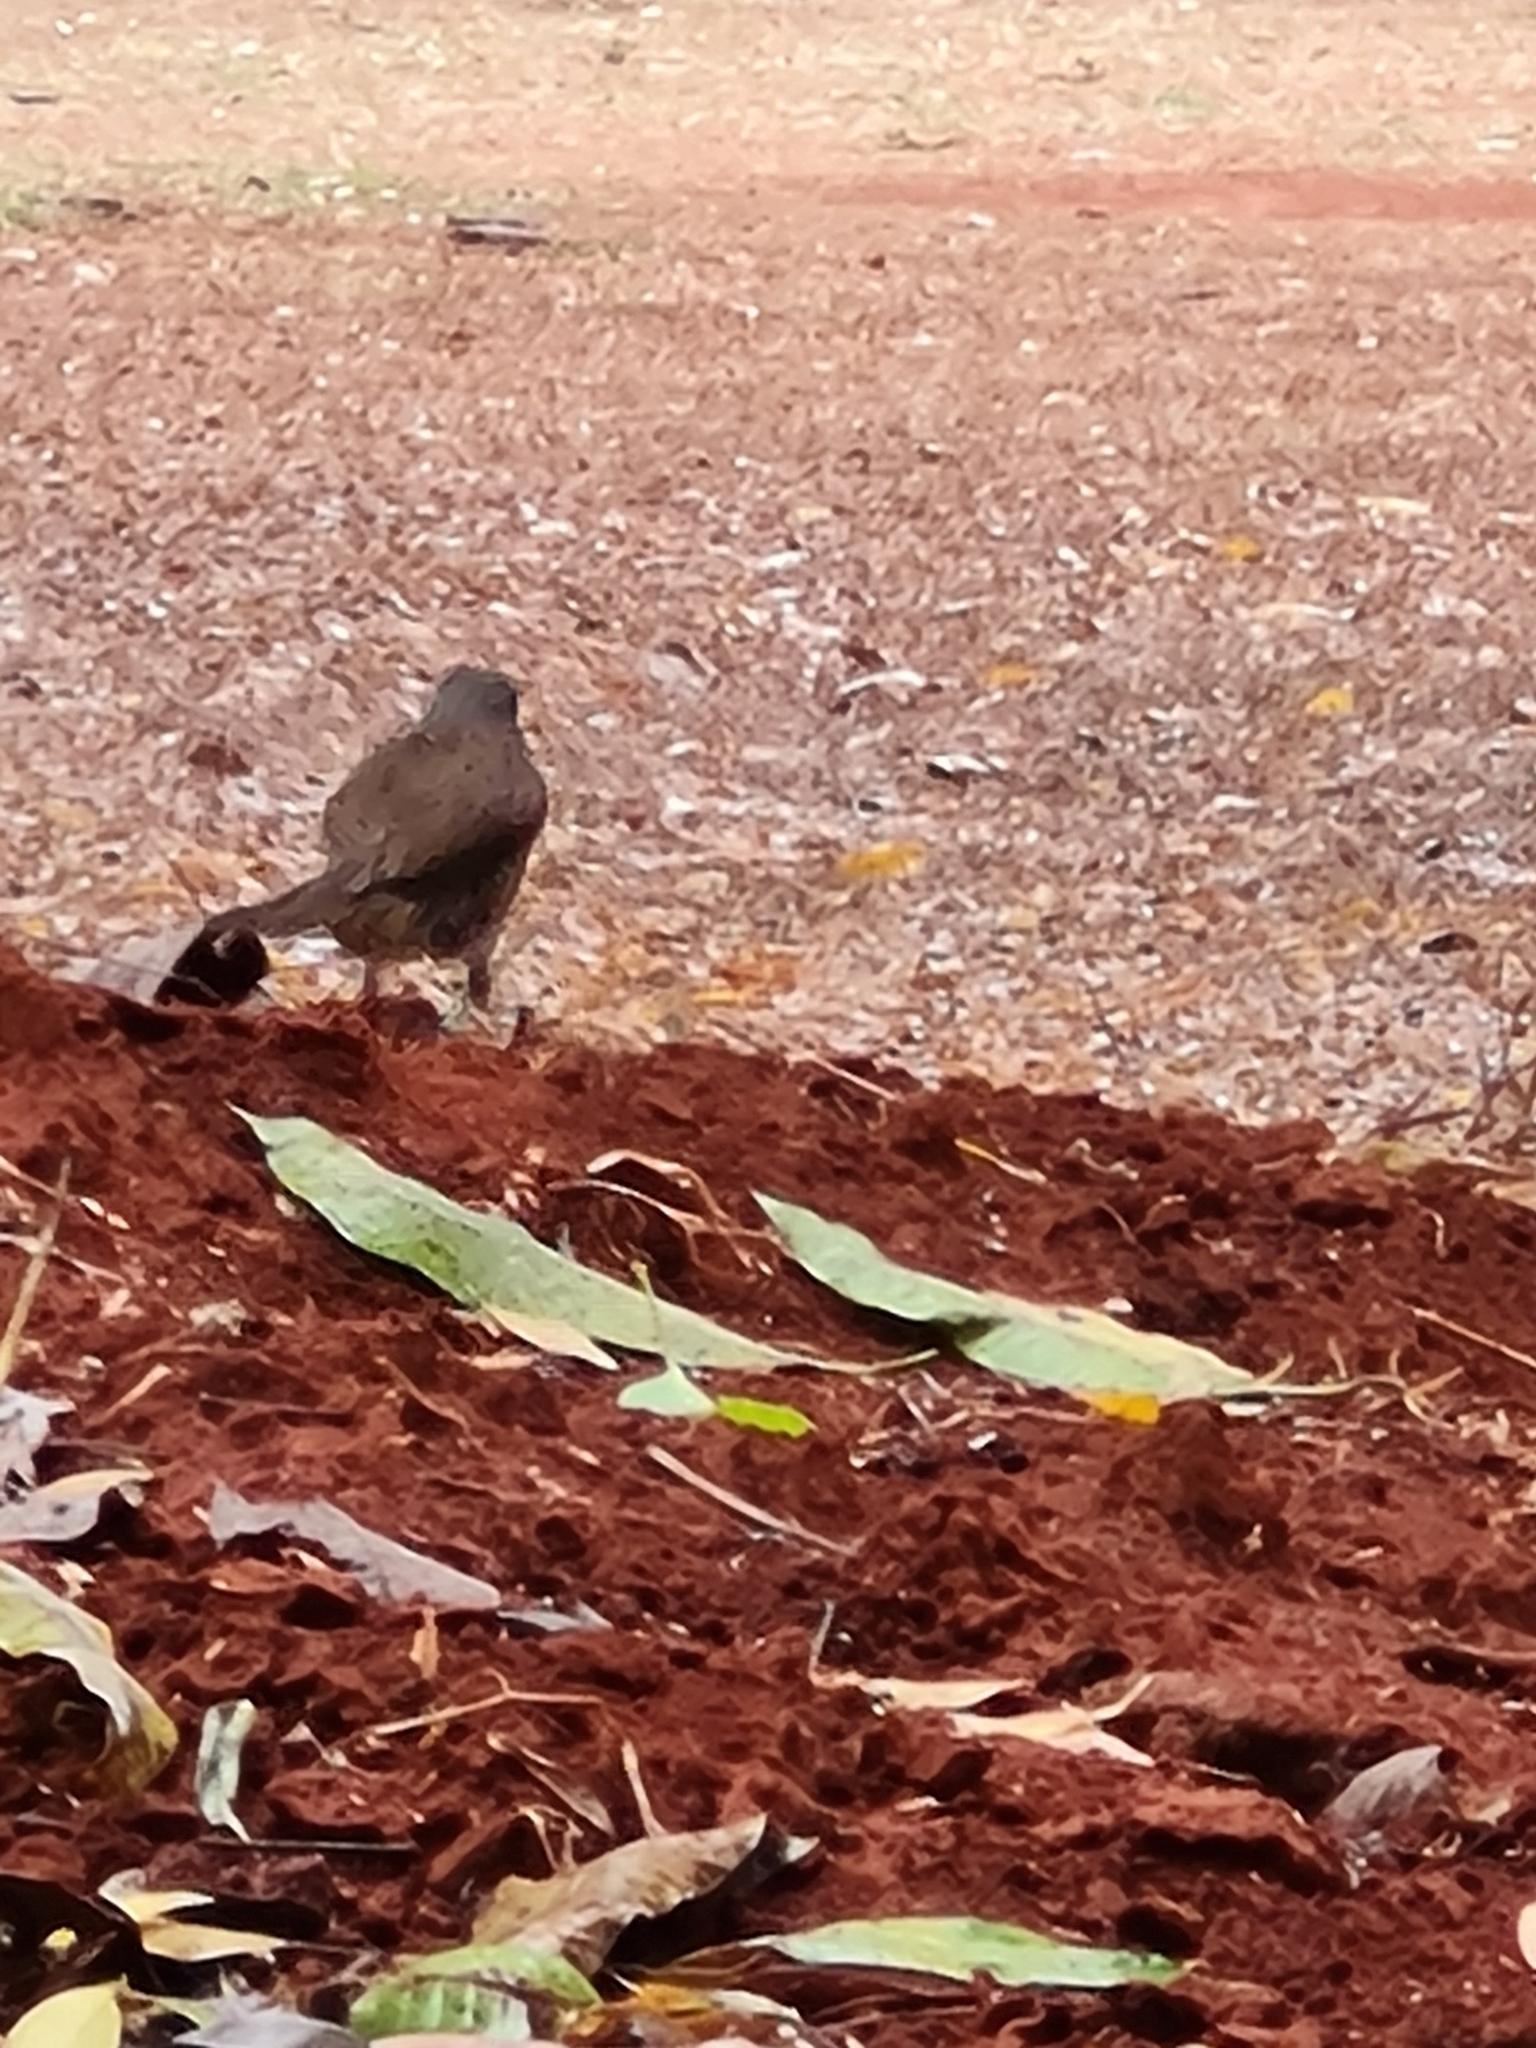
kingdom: Animalia
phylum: Chordata
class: Aves
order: Passeriformes
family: Turdidae
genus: Turdus
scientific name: Turdus leucomelas
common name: Pale-breasted thrush
